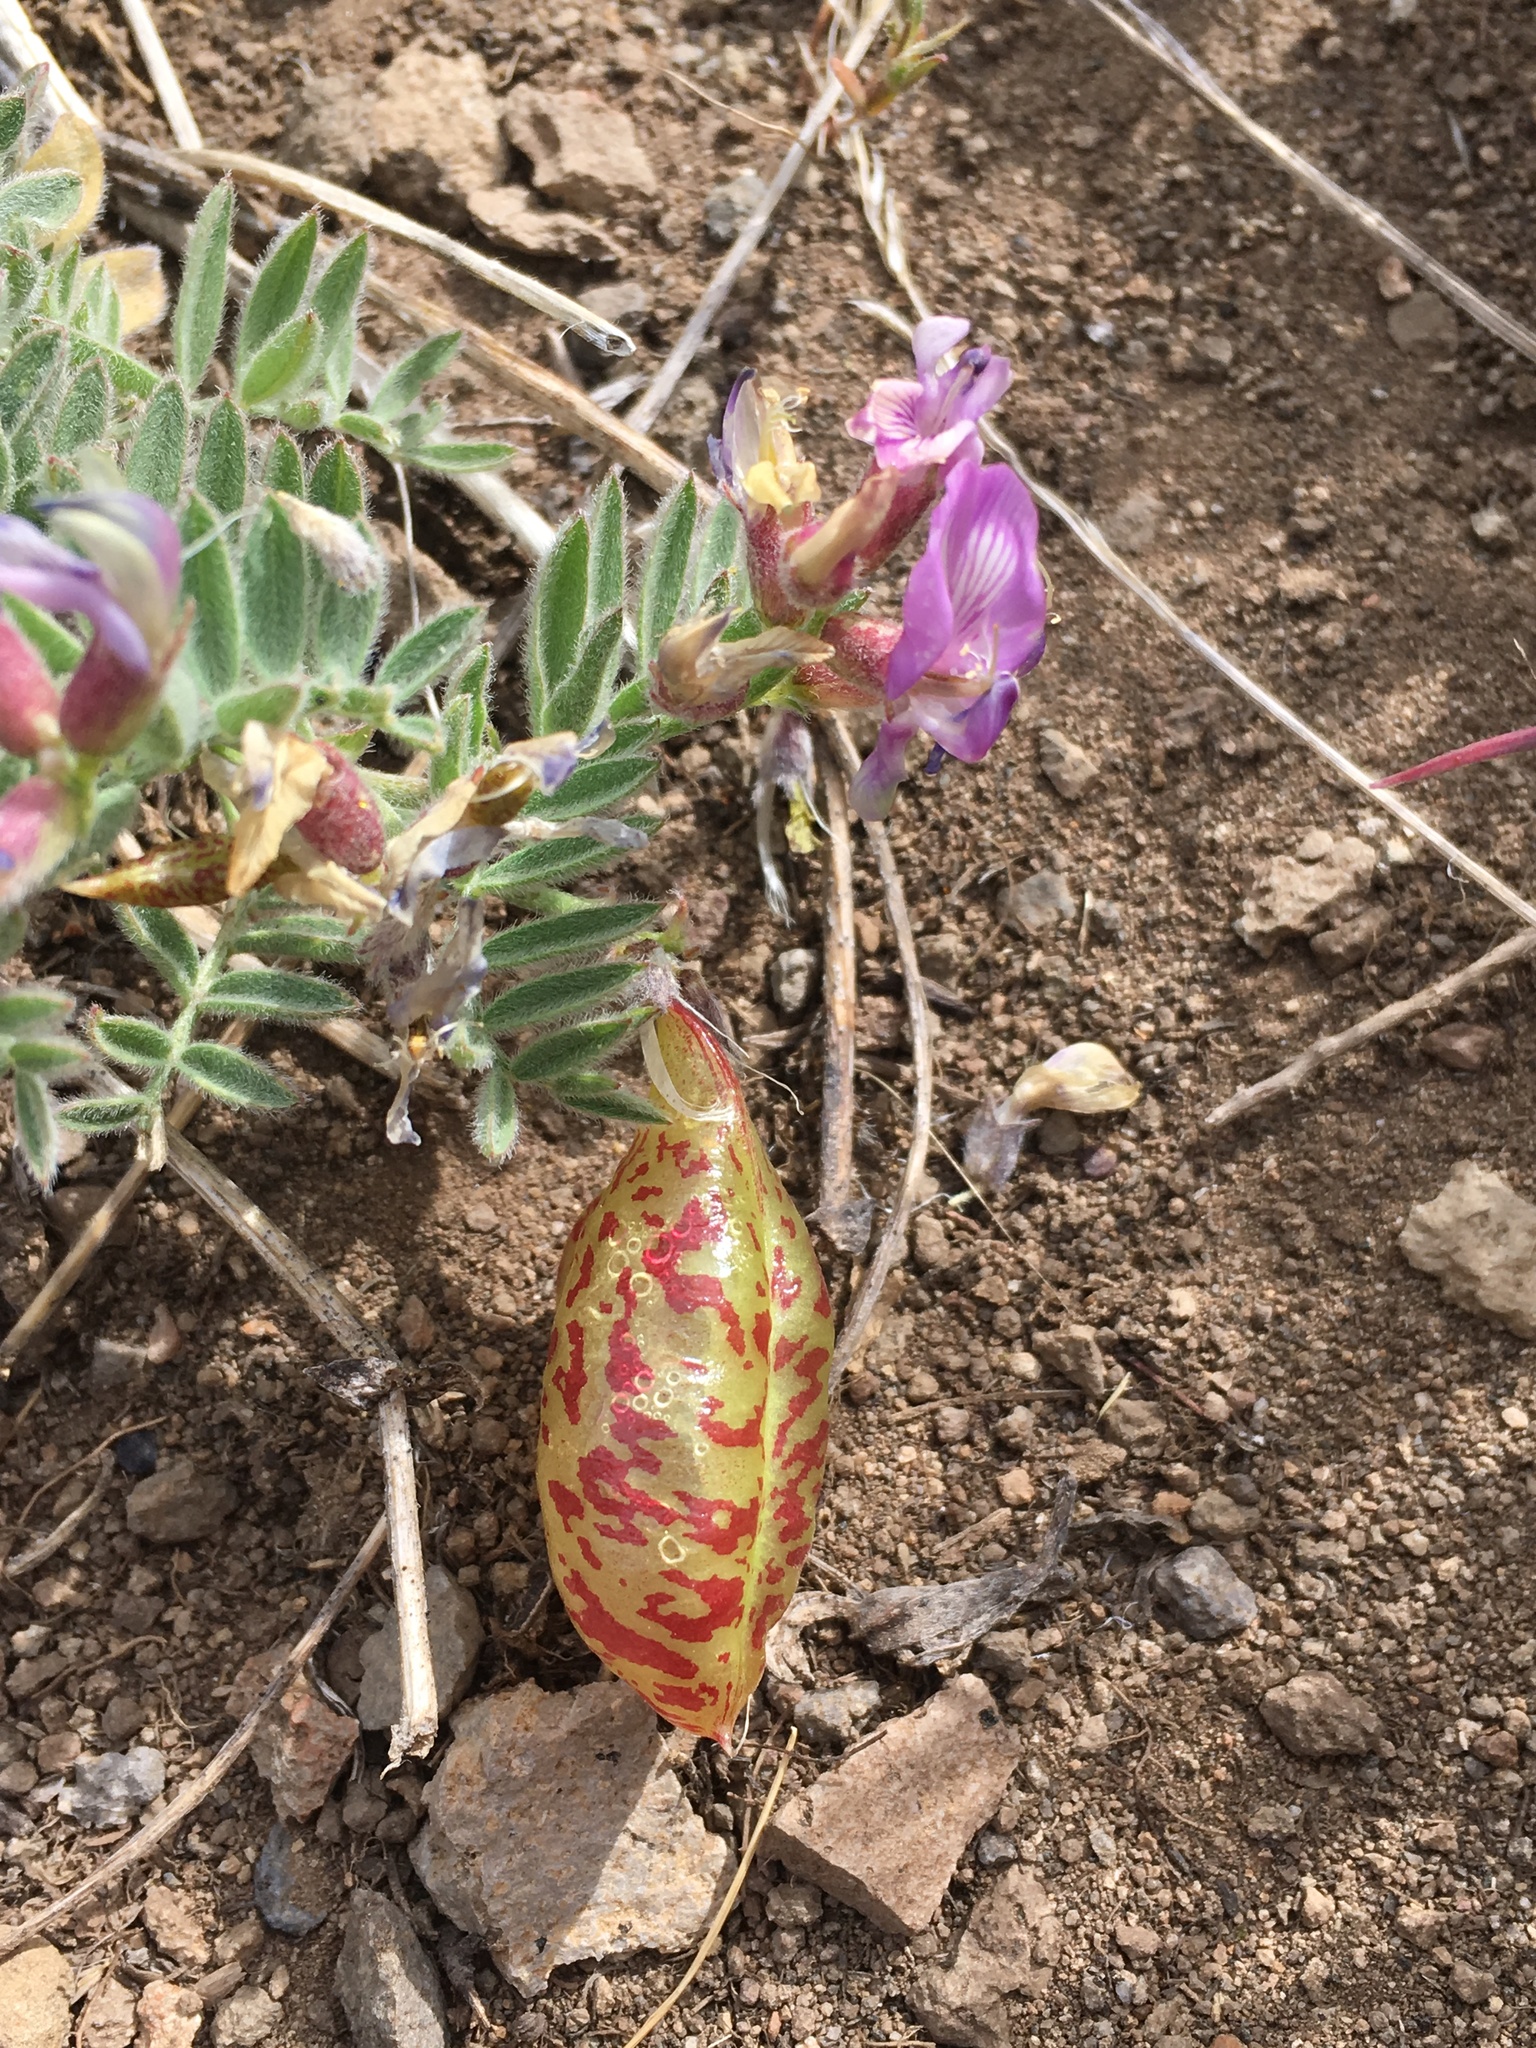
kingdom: Plantae
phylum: Tracheophyta
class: Magnoliopsida
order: Fabales
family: Fabaceae
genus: Astragalus
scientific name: Astragalus whitneyi
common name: Balloonpod milkvetch
